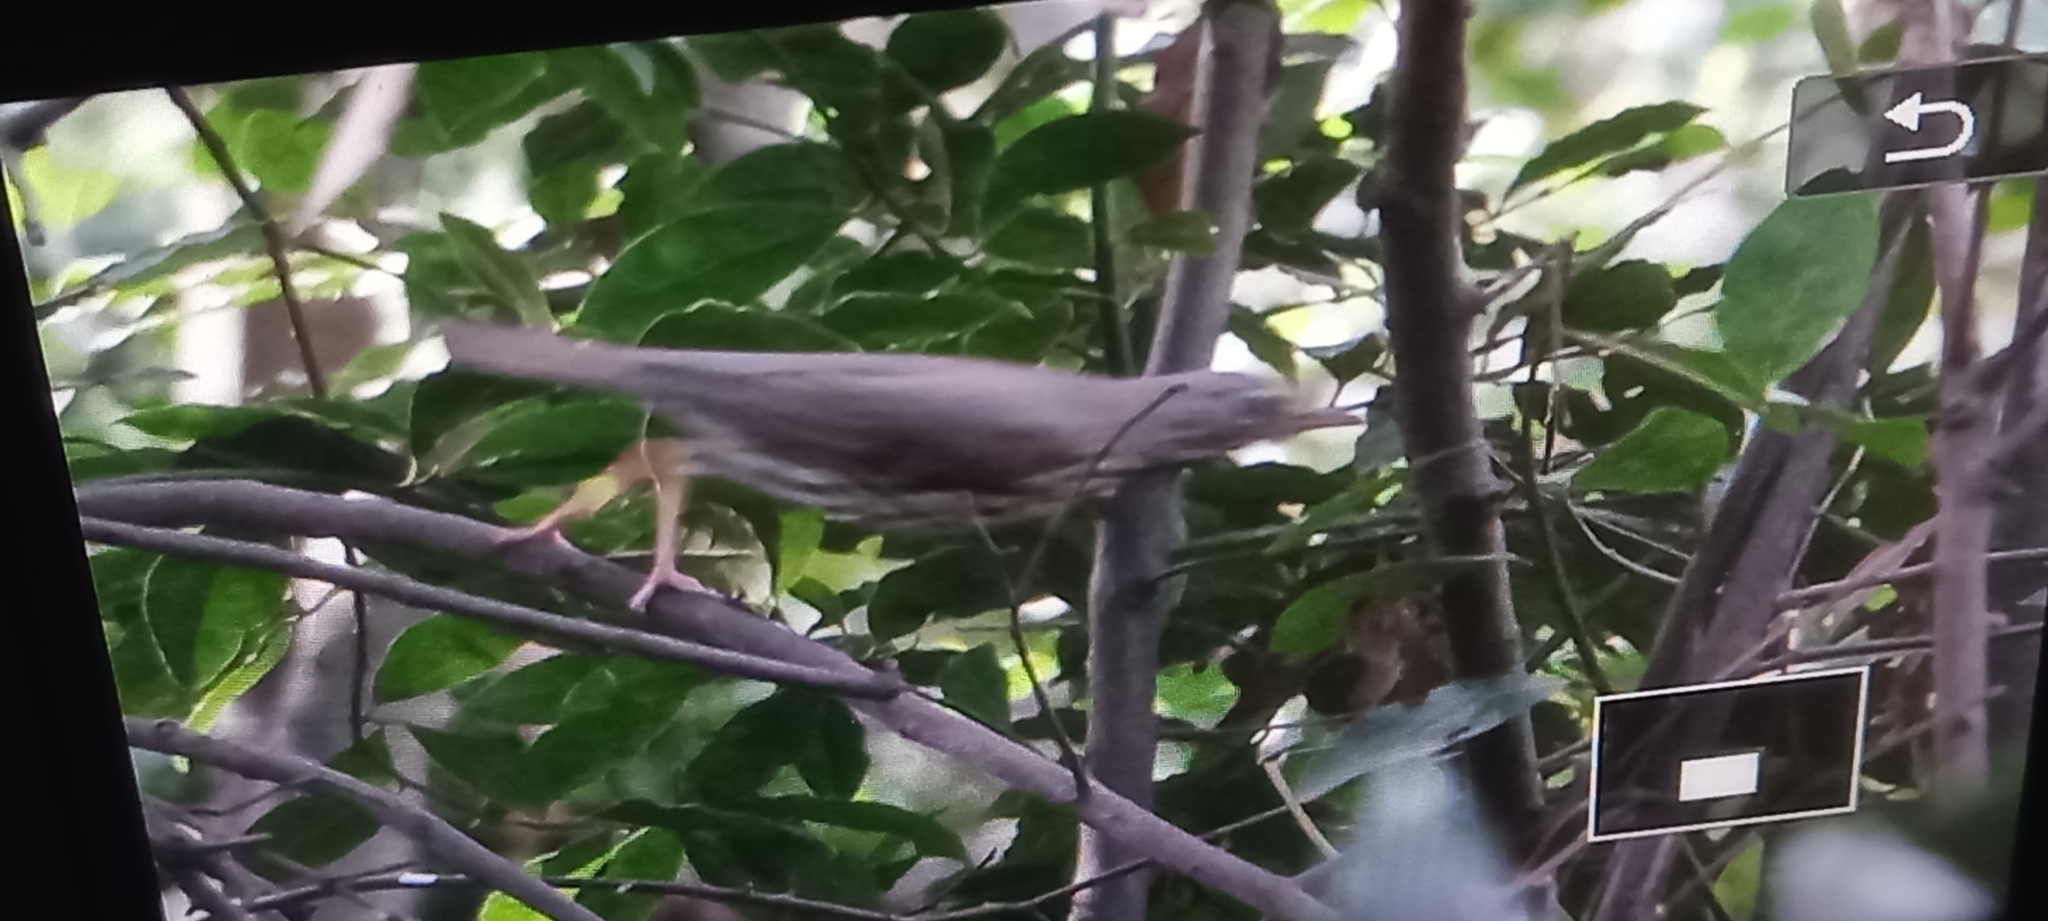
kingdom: Animalia
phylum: Chordata
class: Aves
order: Passeriformes
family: Turdidae
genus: Turdus
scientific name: Turdus philomelos
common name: Song thrush
